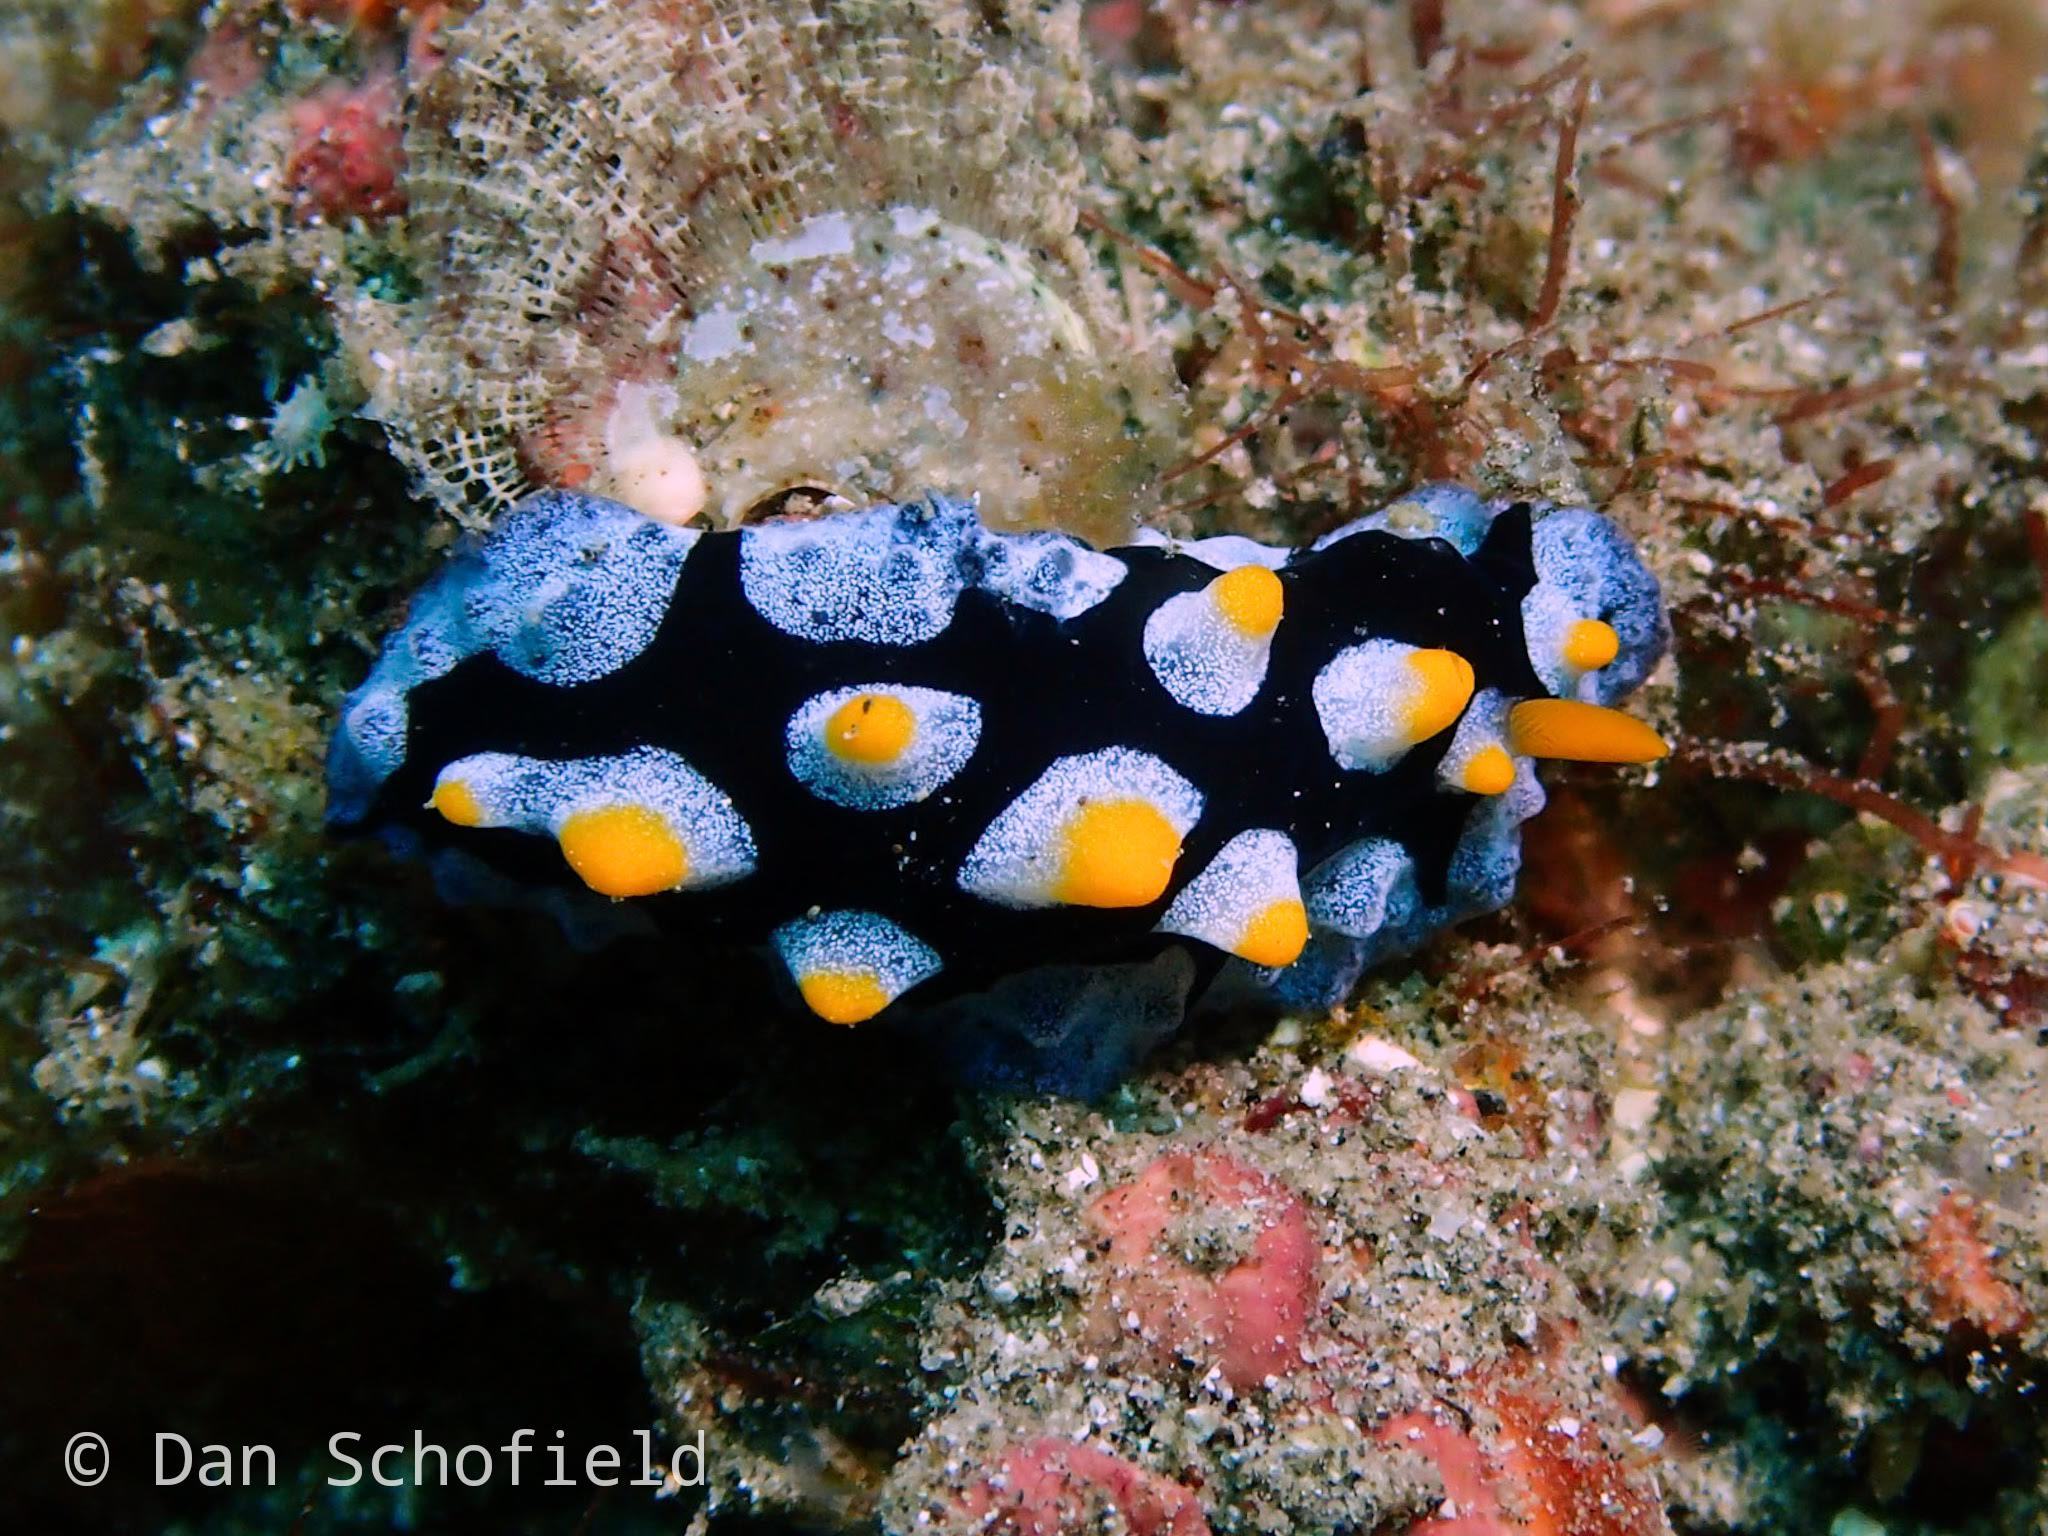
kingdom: Animalia
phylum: Mollusca
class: Gastropoda
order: Nudibranchia
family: Phyllidiidae
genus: Phyllidia
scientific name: Phyllidia picta
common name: Black-rayed phyllidia
